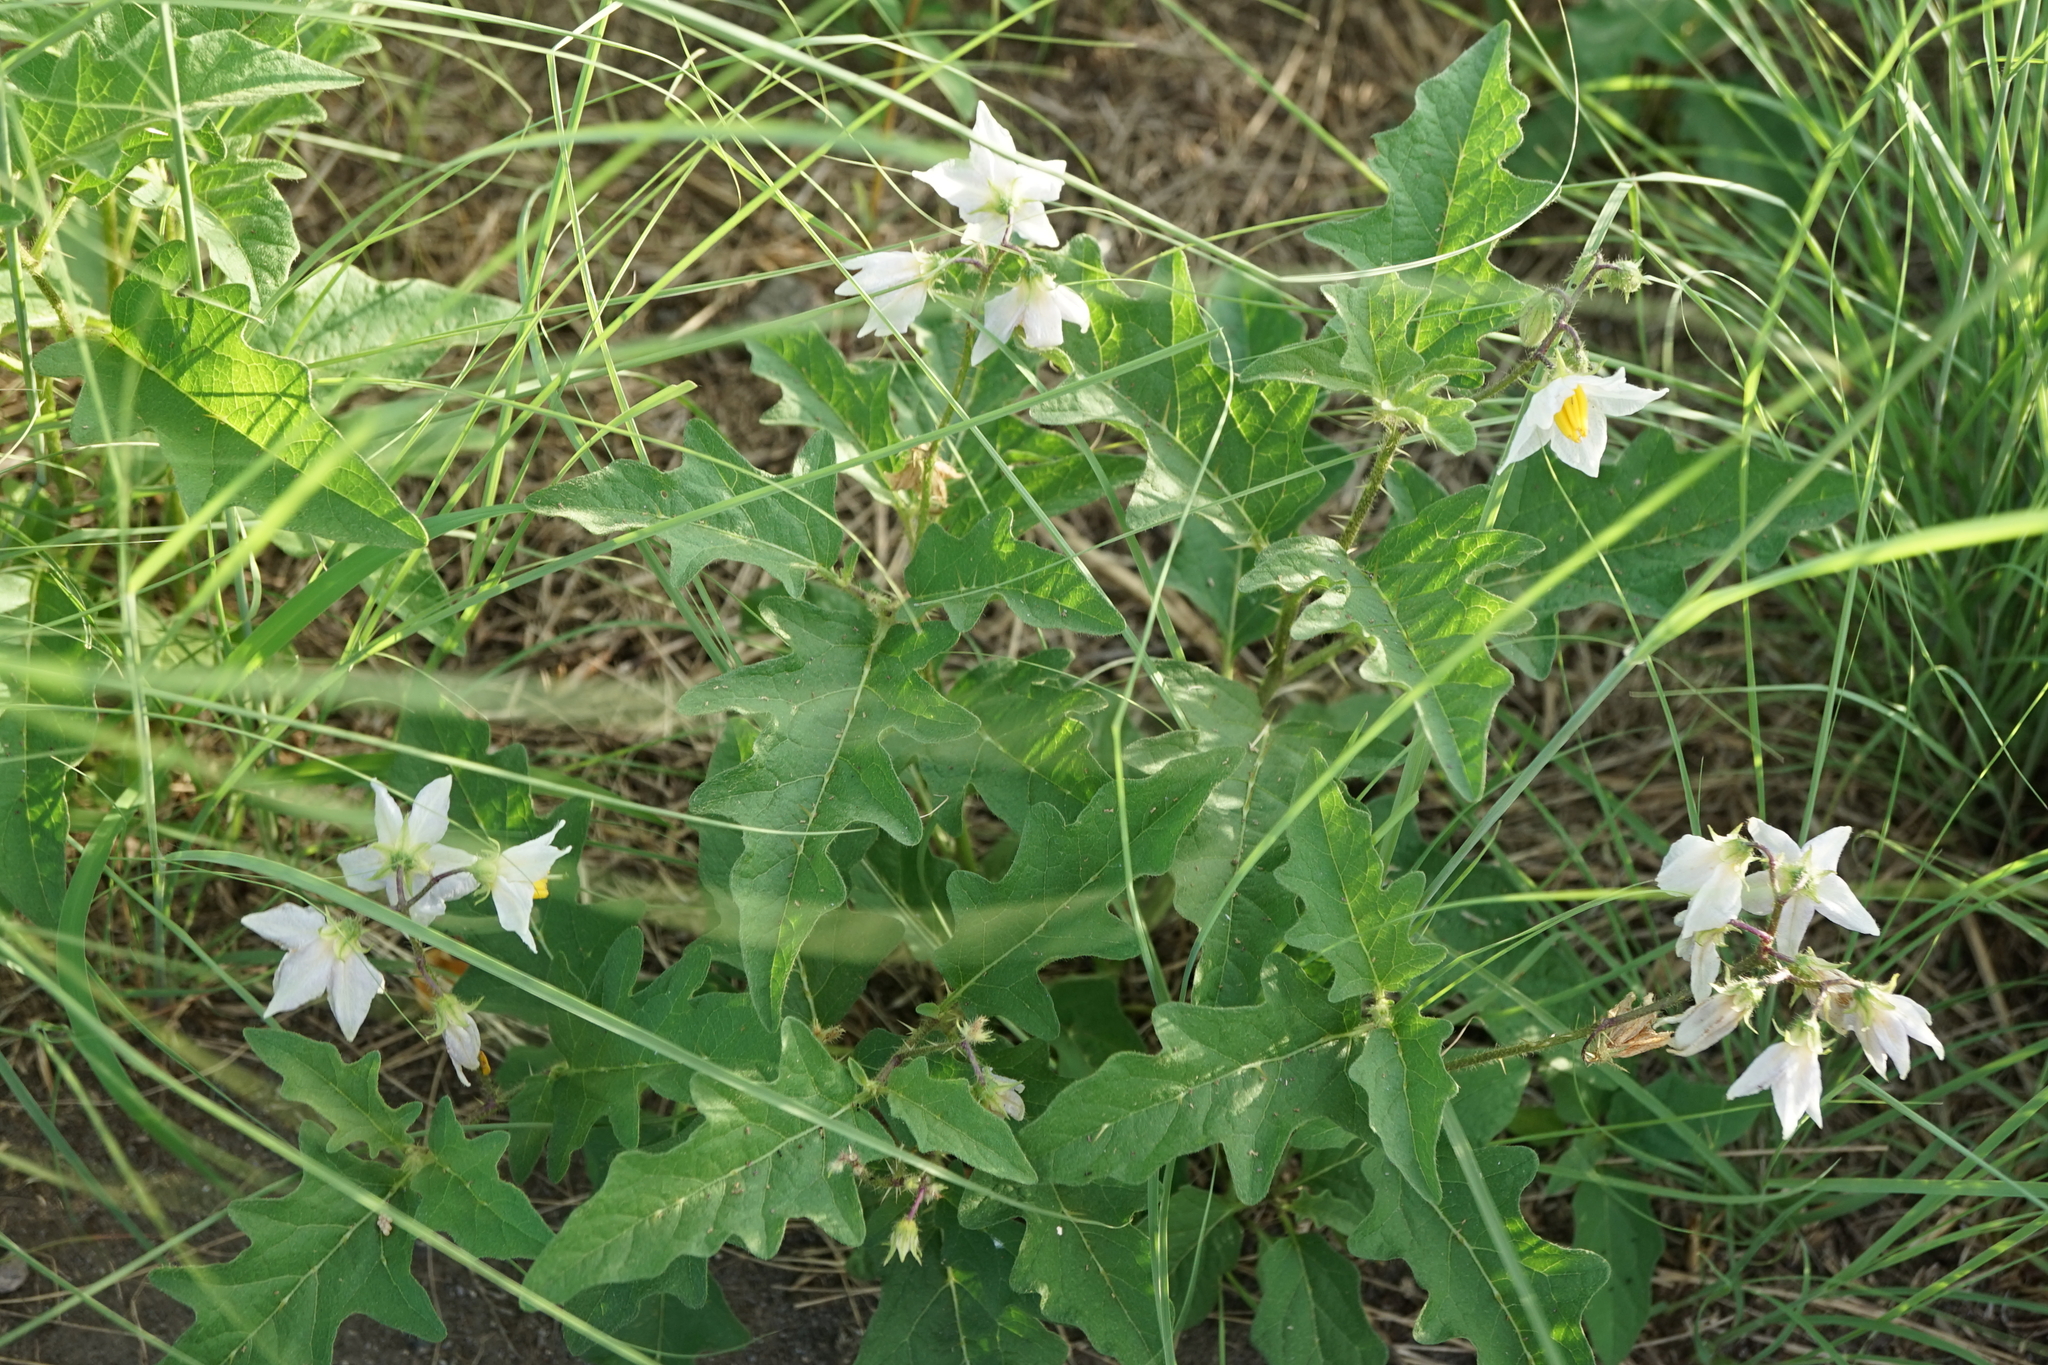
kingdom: Plantae
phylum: Tracheophyta
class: Magnoliopsida
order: Solanales
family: Solanaceae
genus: Solanum
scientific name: Solanum carolinense
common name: Horse-nettle
